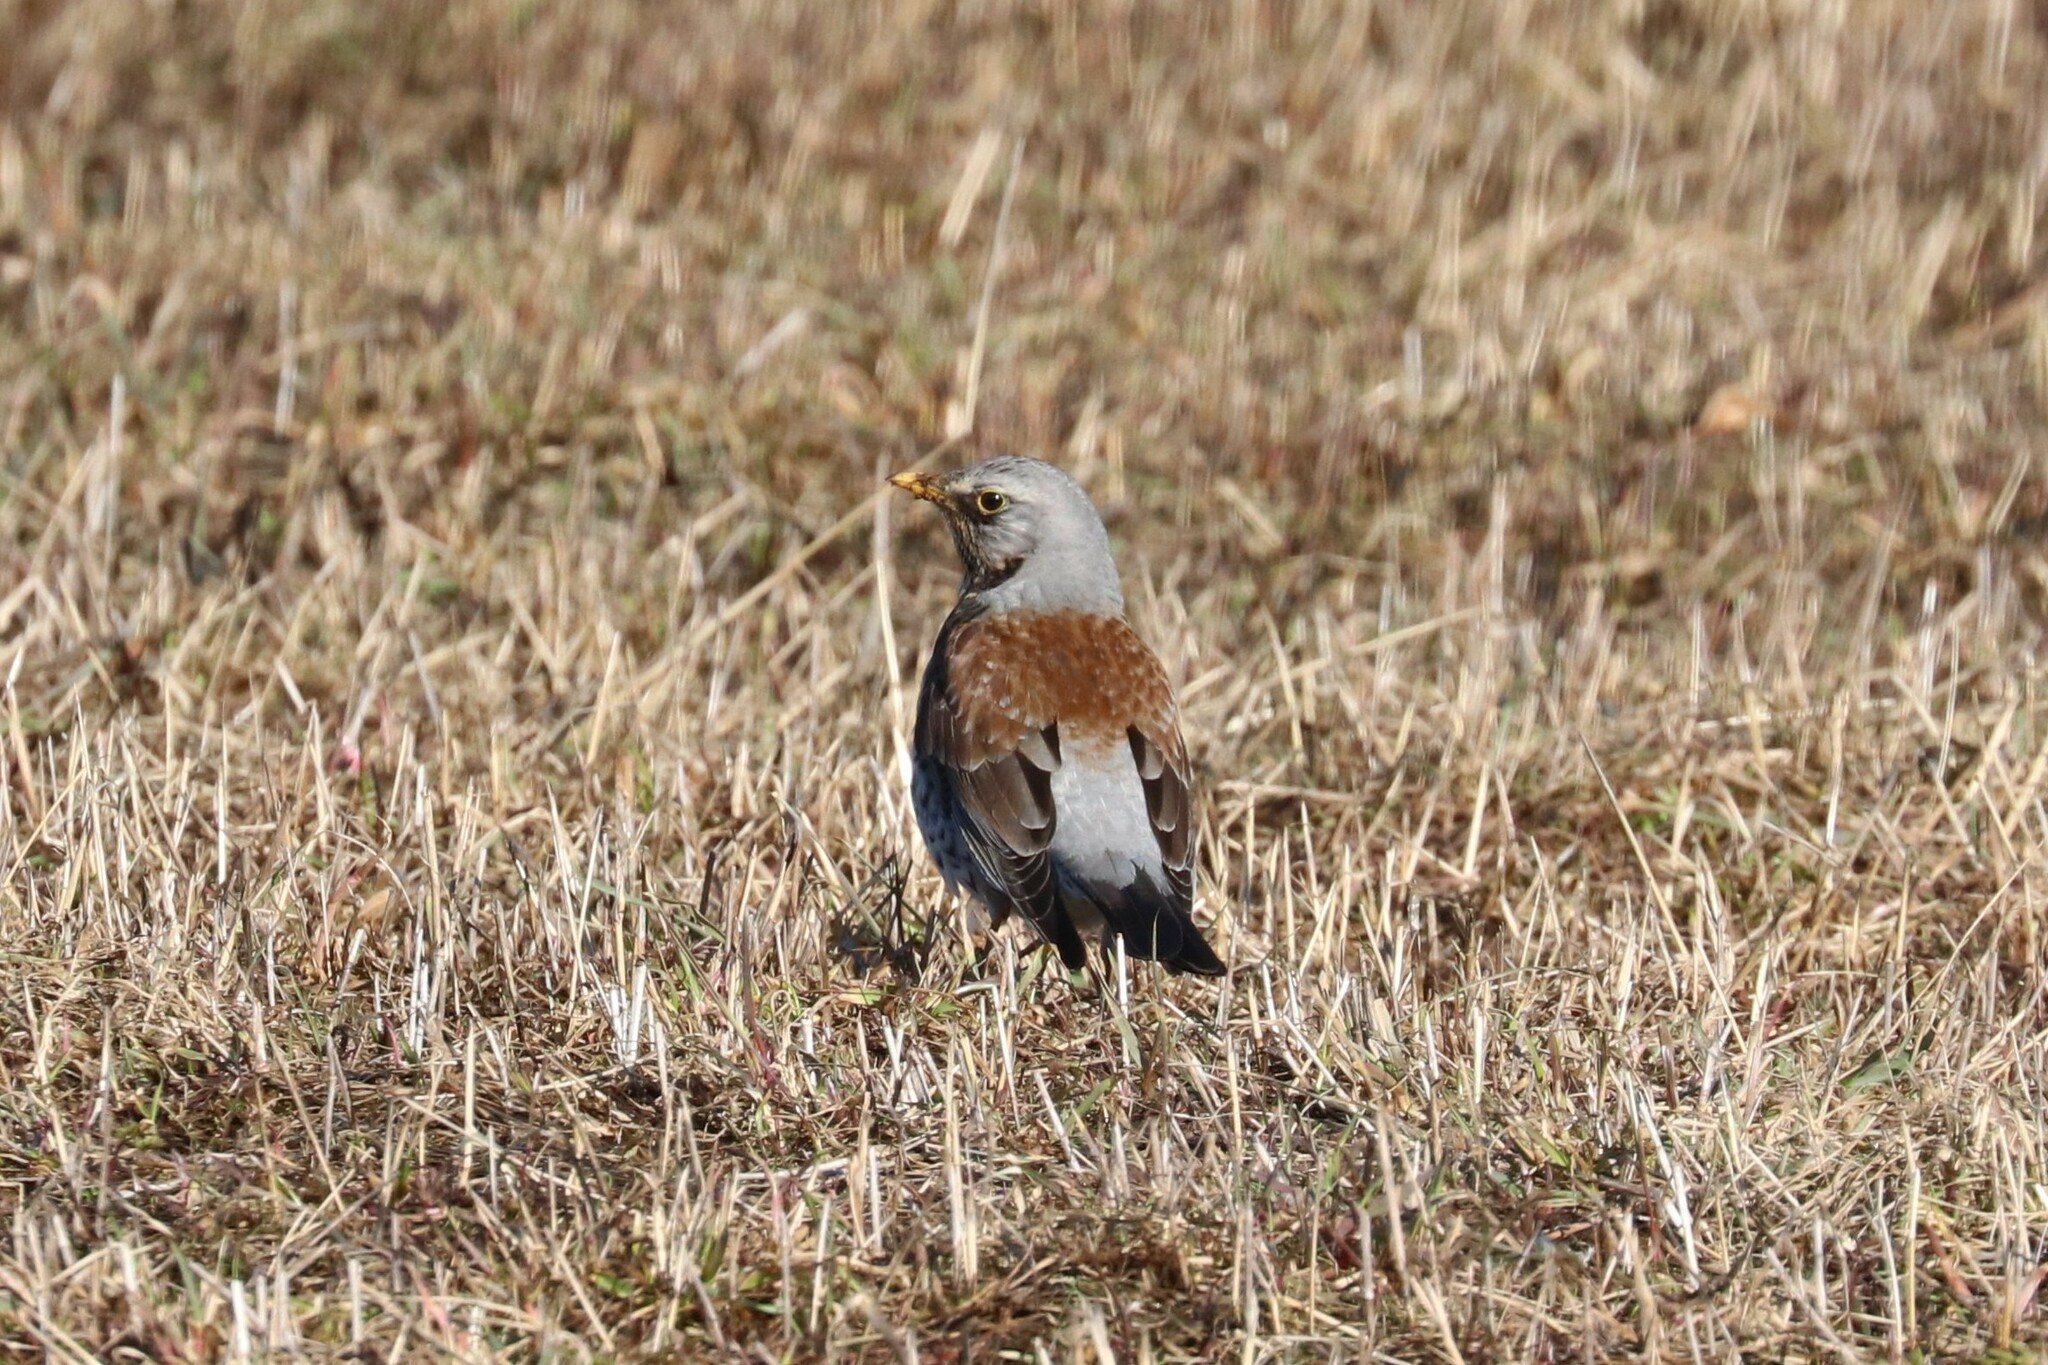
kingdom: Animalia
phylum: Chordata
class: Aves
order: Passeriformes
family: Turdidae
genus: Turdus
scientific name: Turdus pilaris
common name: Fieldfare
